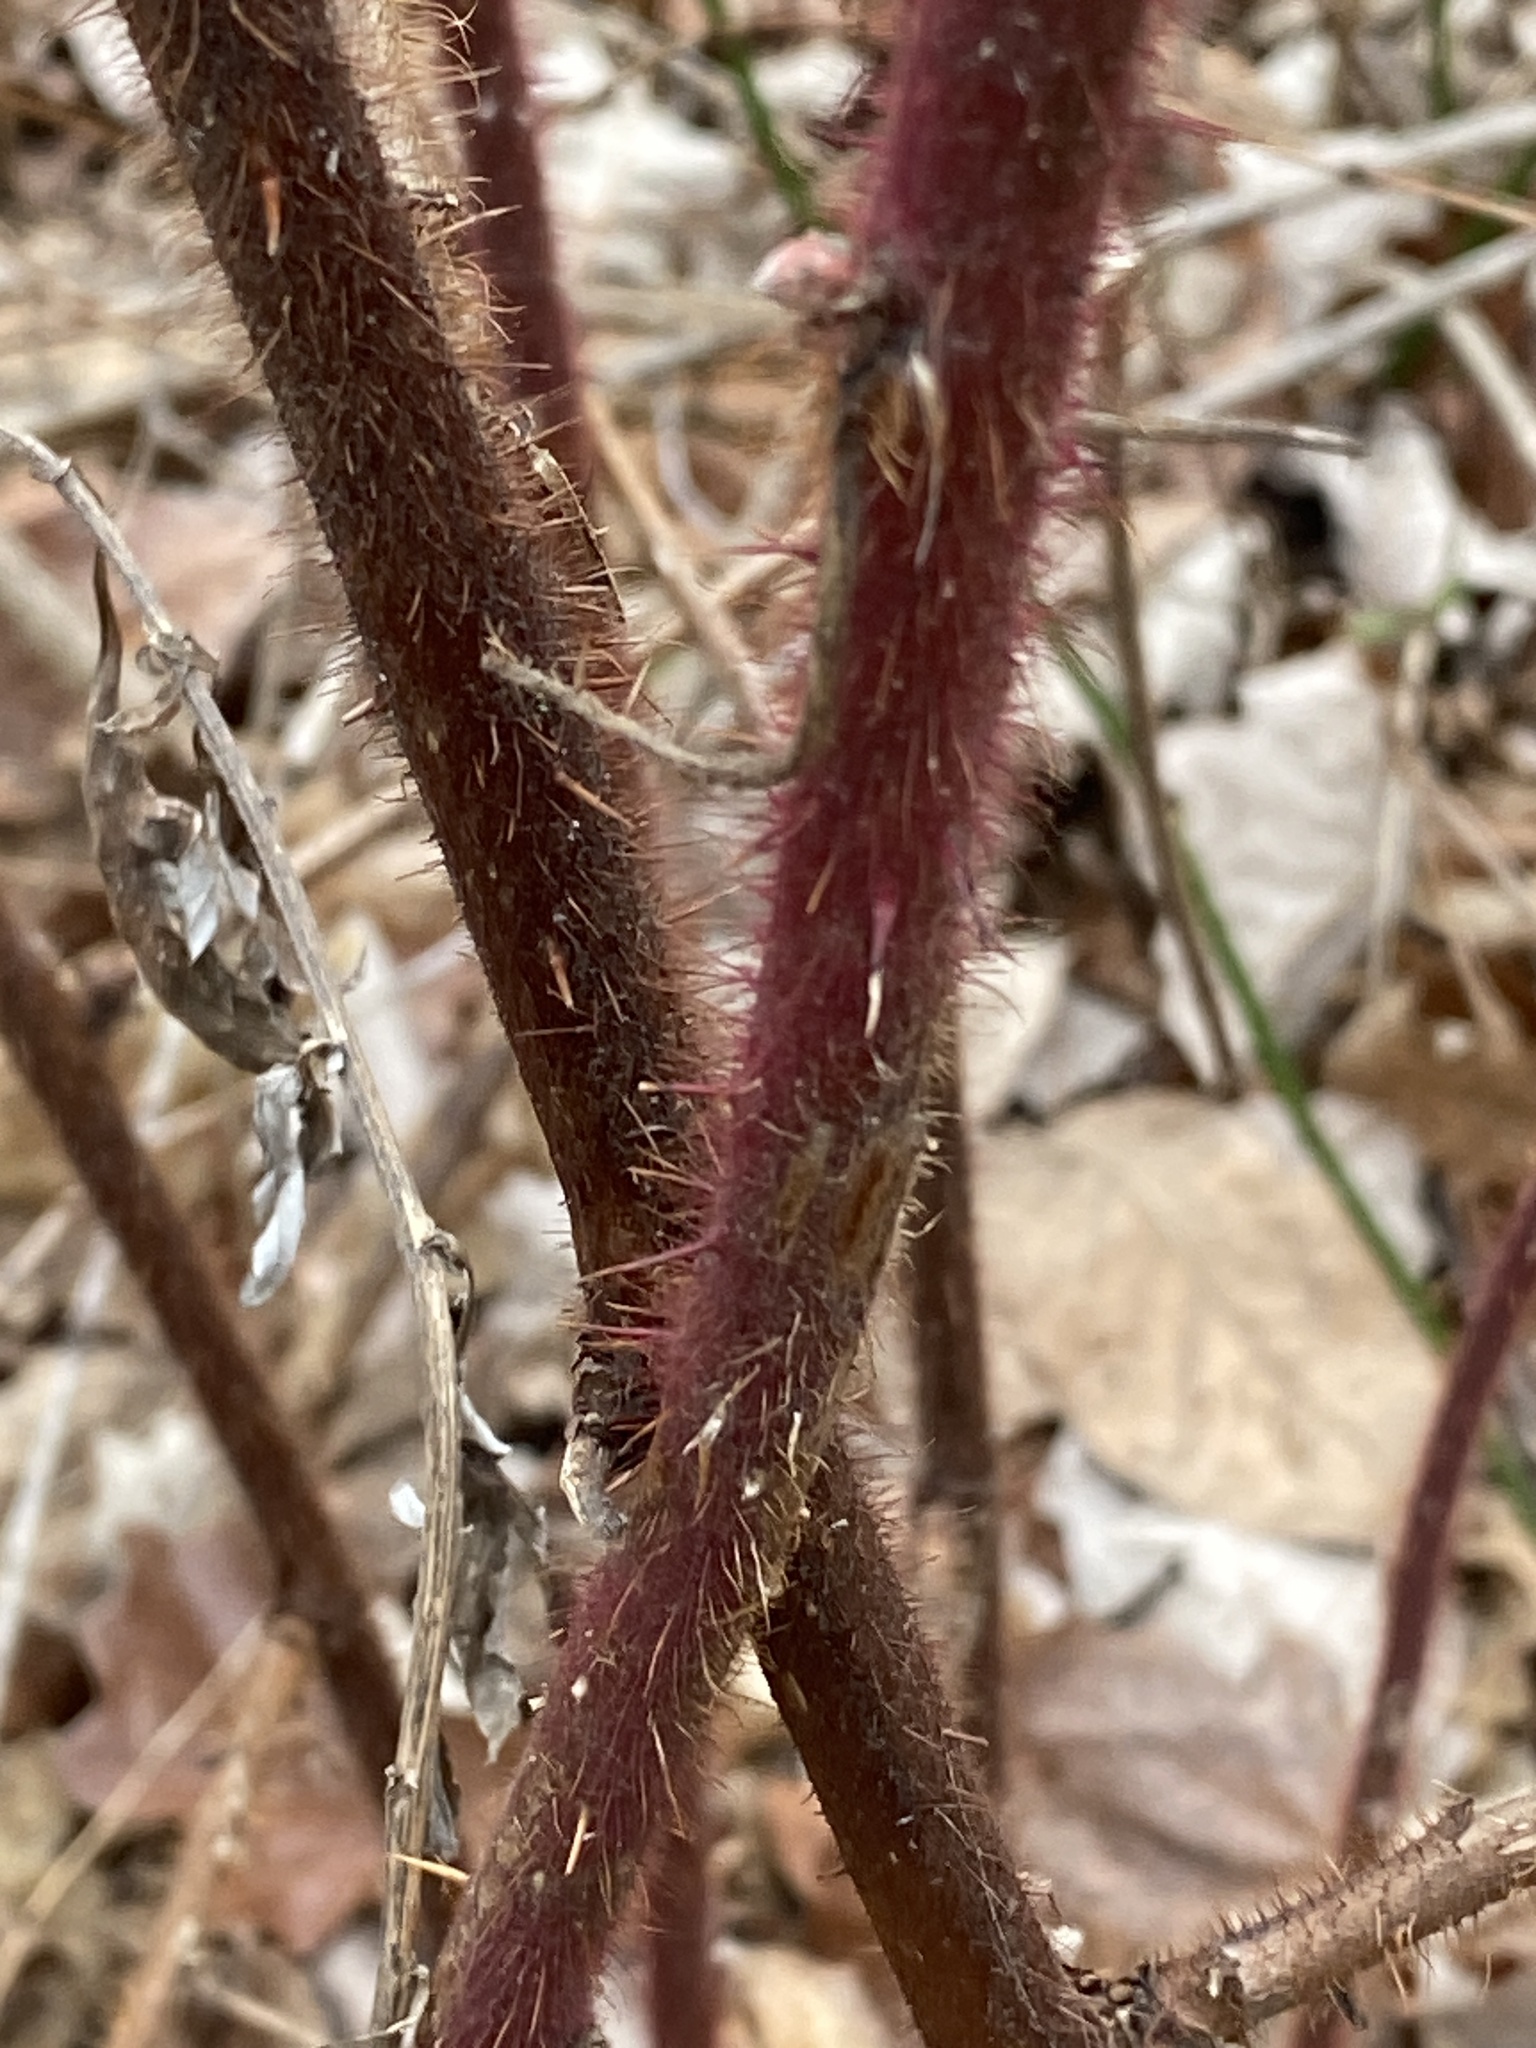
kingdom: Plantae
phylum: Tracheophyta
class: Magnoliopsida
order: Rosales
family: Rosaceae
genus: Rubus
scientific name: Rubus phoenicolasius
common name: Japanese wineberry
